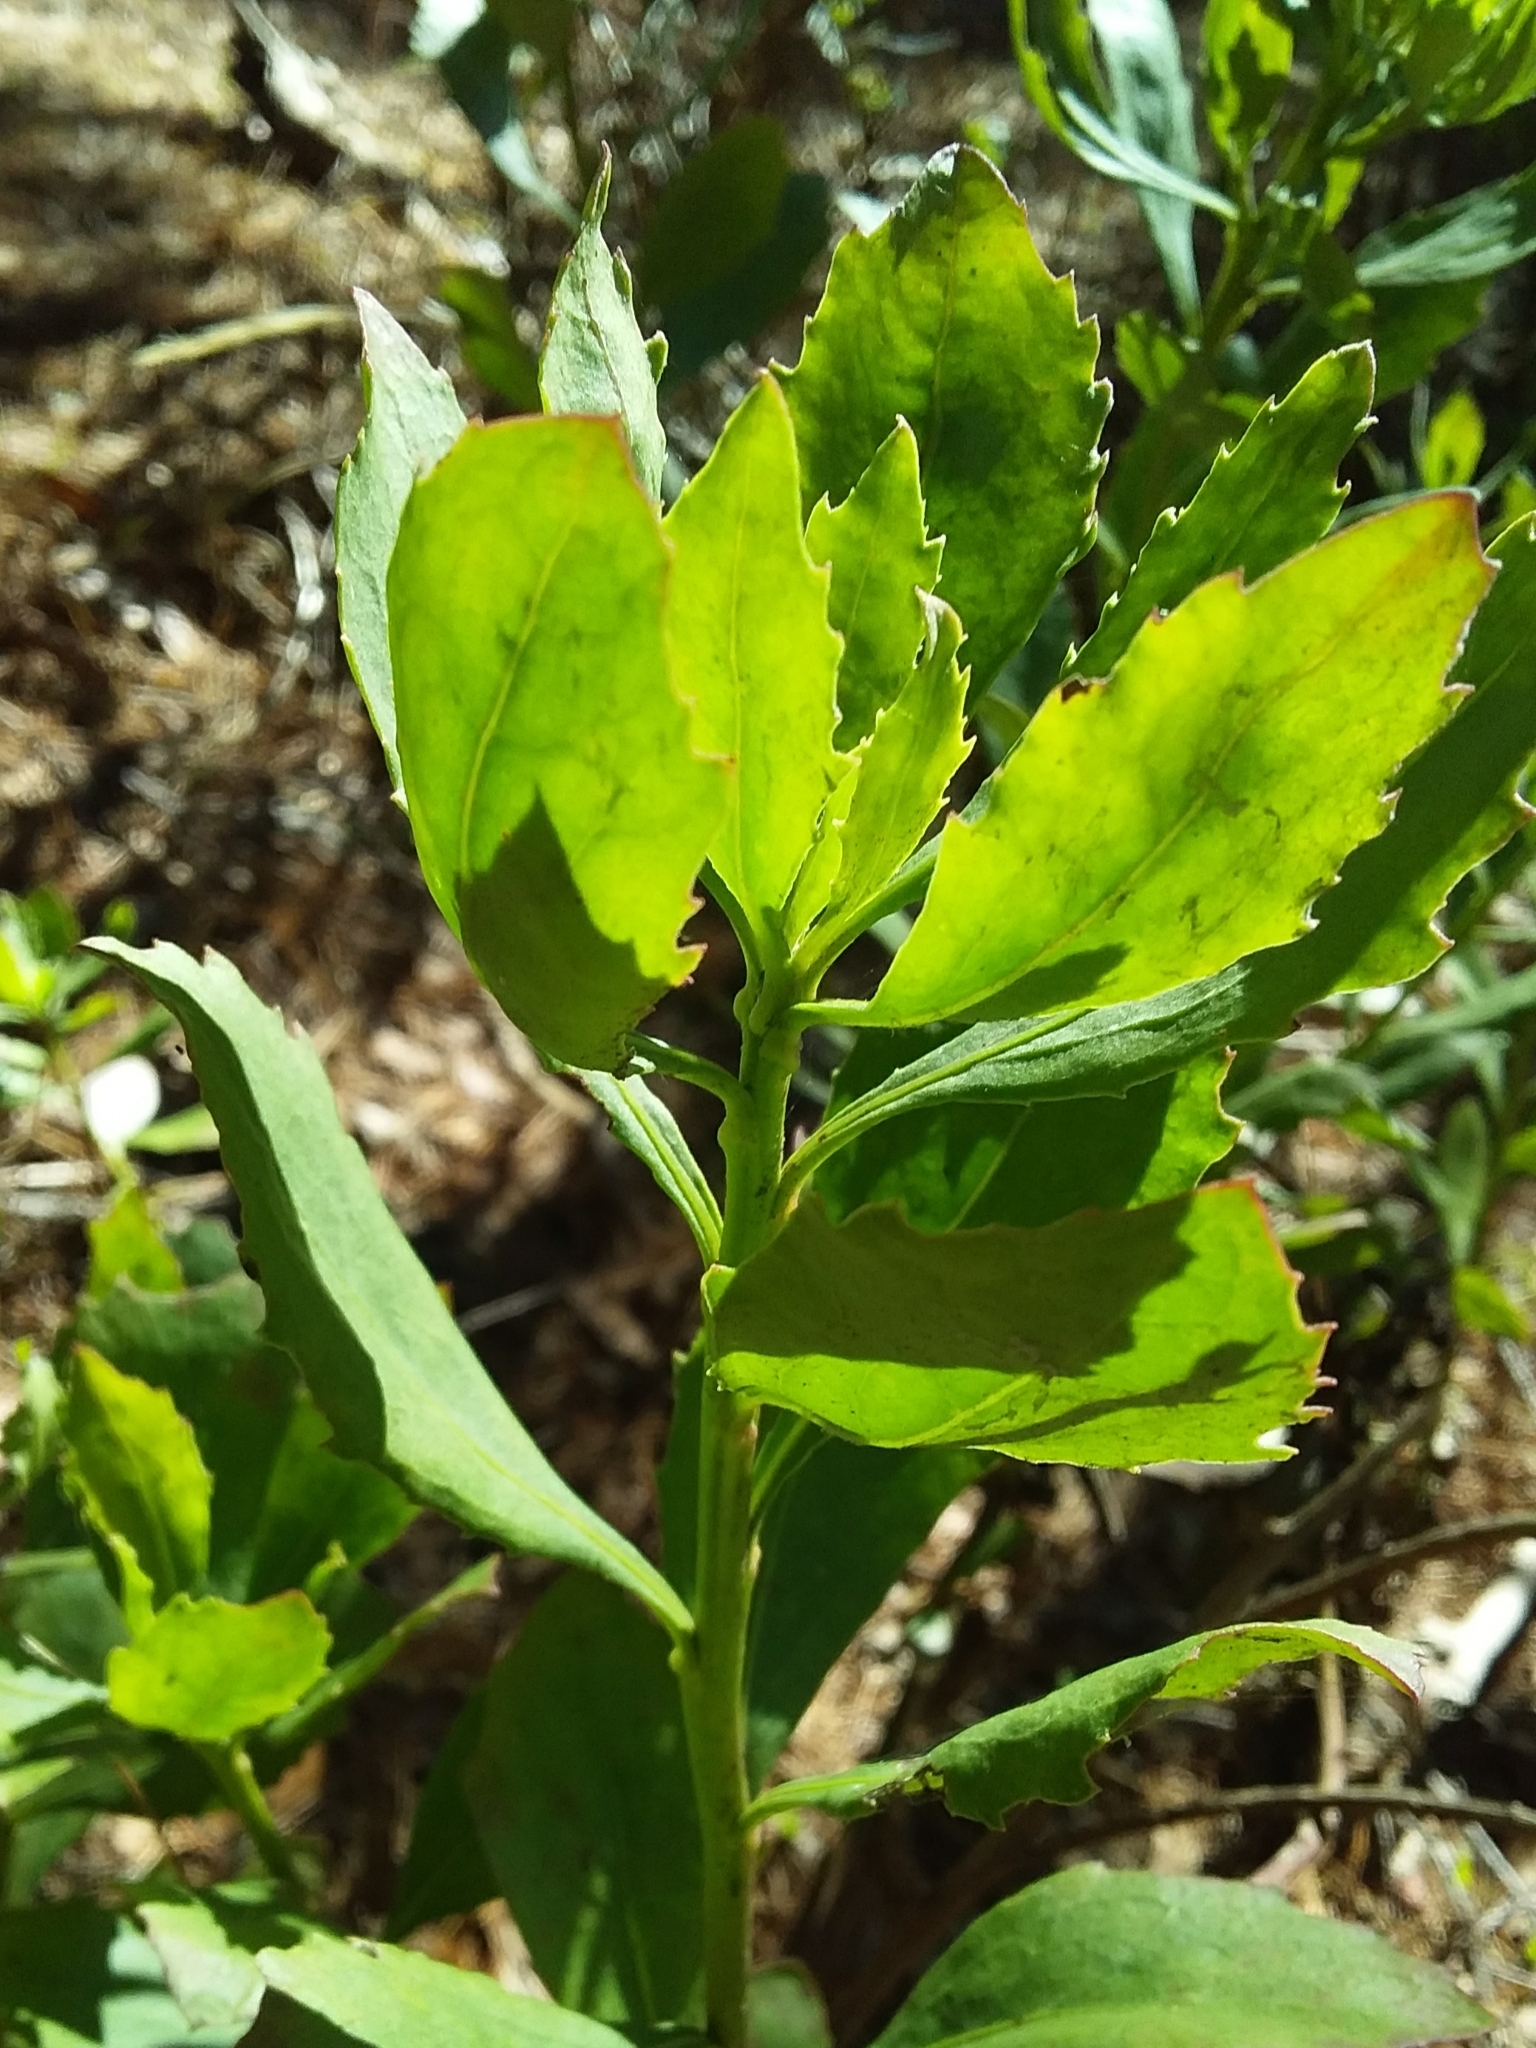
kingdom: Plantae
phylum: Tracheophyta
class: Magnoliopsida
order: Asterales
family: Asteraceae
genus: Osteospermum
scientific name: Osteospermum moniliferum
